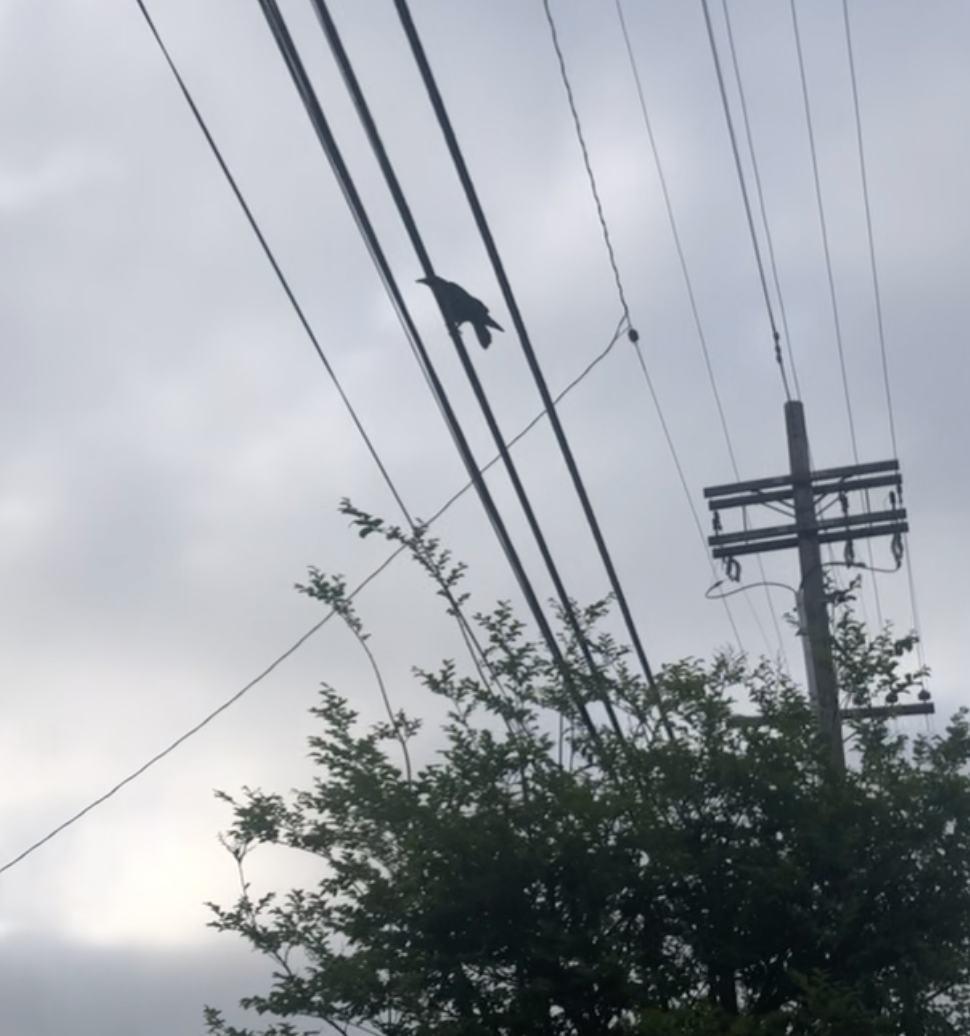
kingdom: Animalia
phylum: Chordata
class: Aves
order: Passeriformes
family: Corvidae
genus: Corvus
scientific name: Corvus brachyrhynchos
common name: American crow
